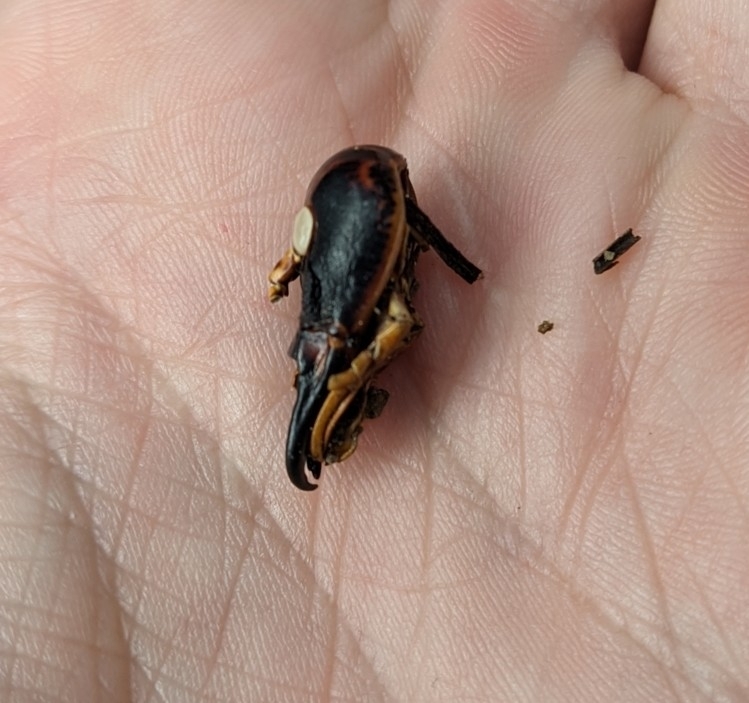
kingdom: Animalia
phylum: Arthropoda
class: Insecta
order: Orthoptera
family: Anostostomatidae
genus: Hemideina
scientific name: Hemideina thoracica
